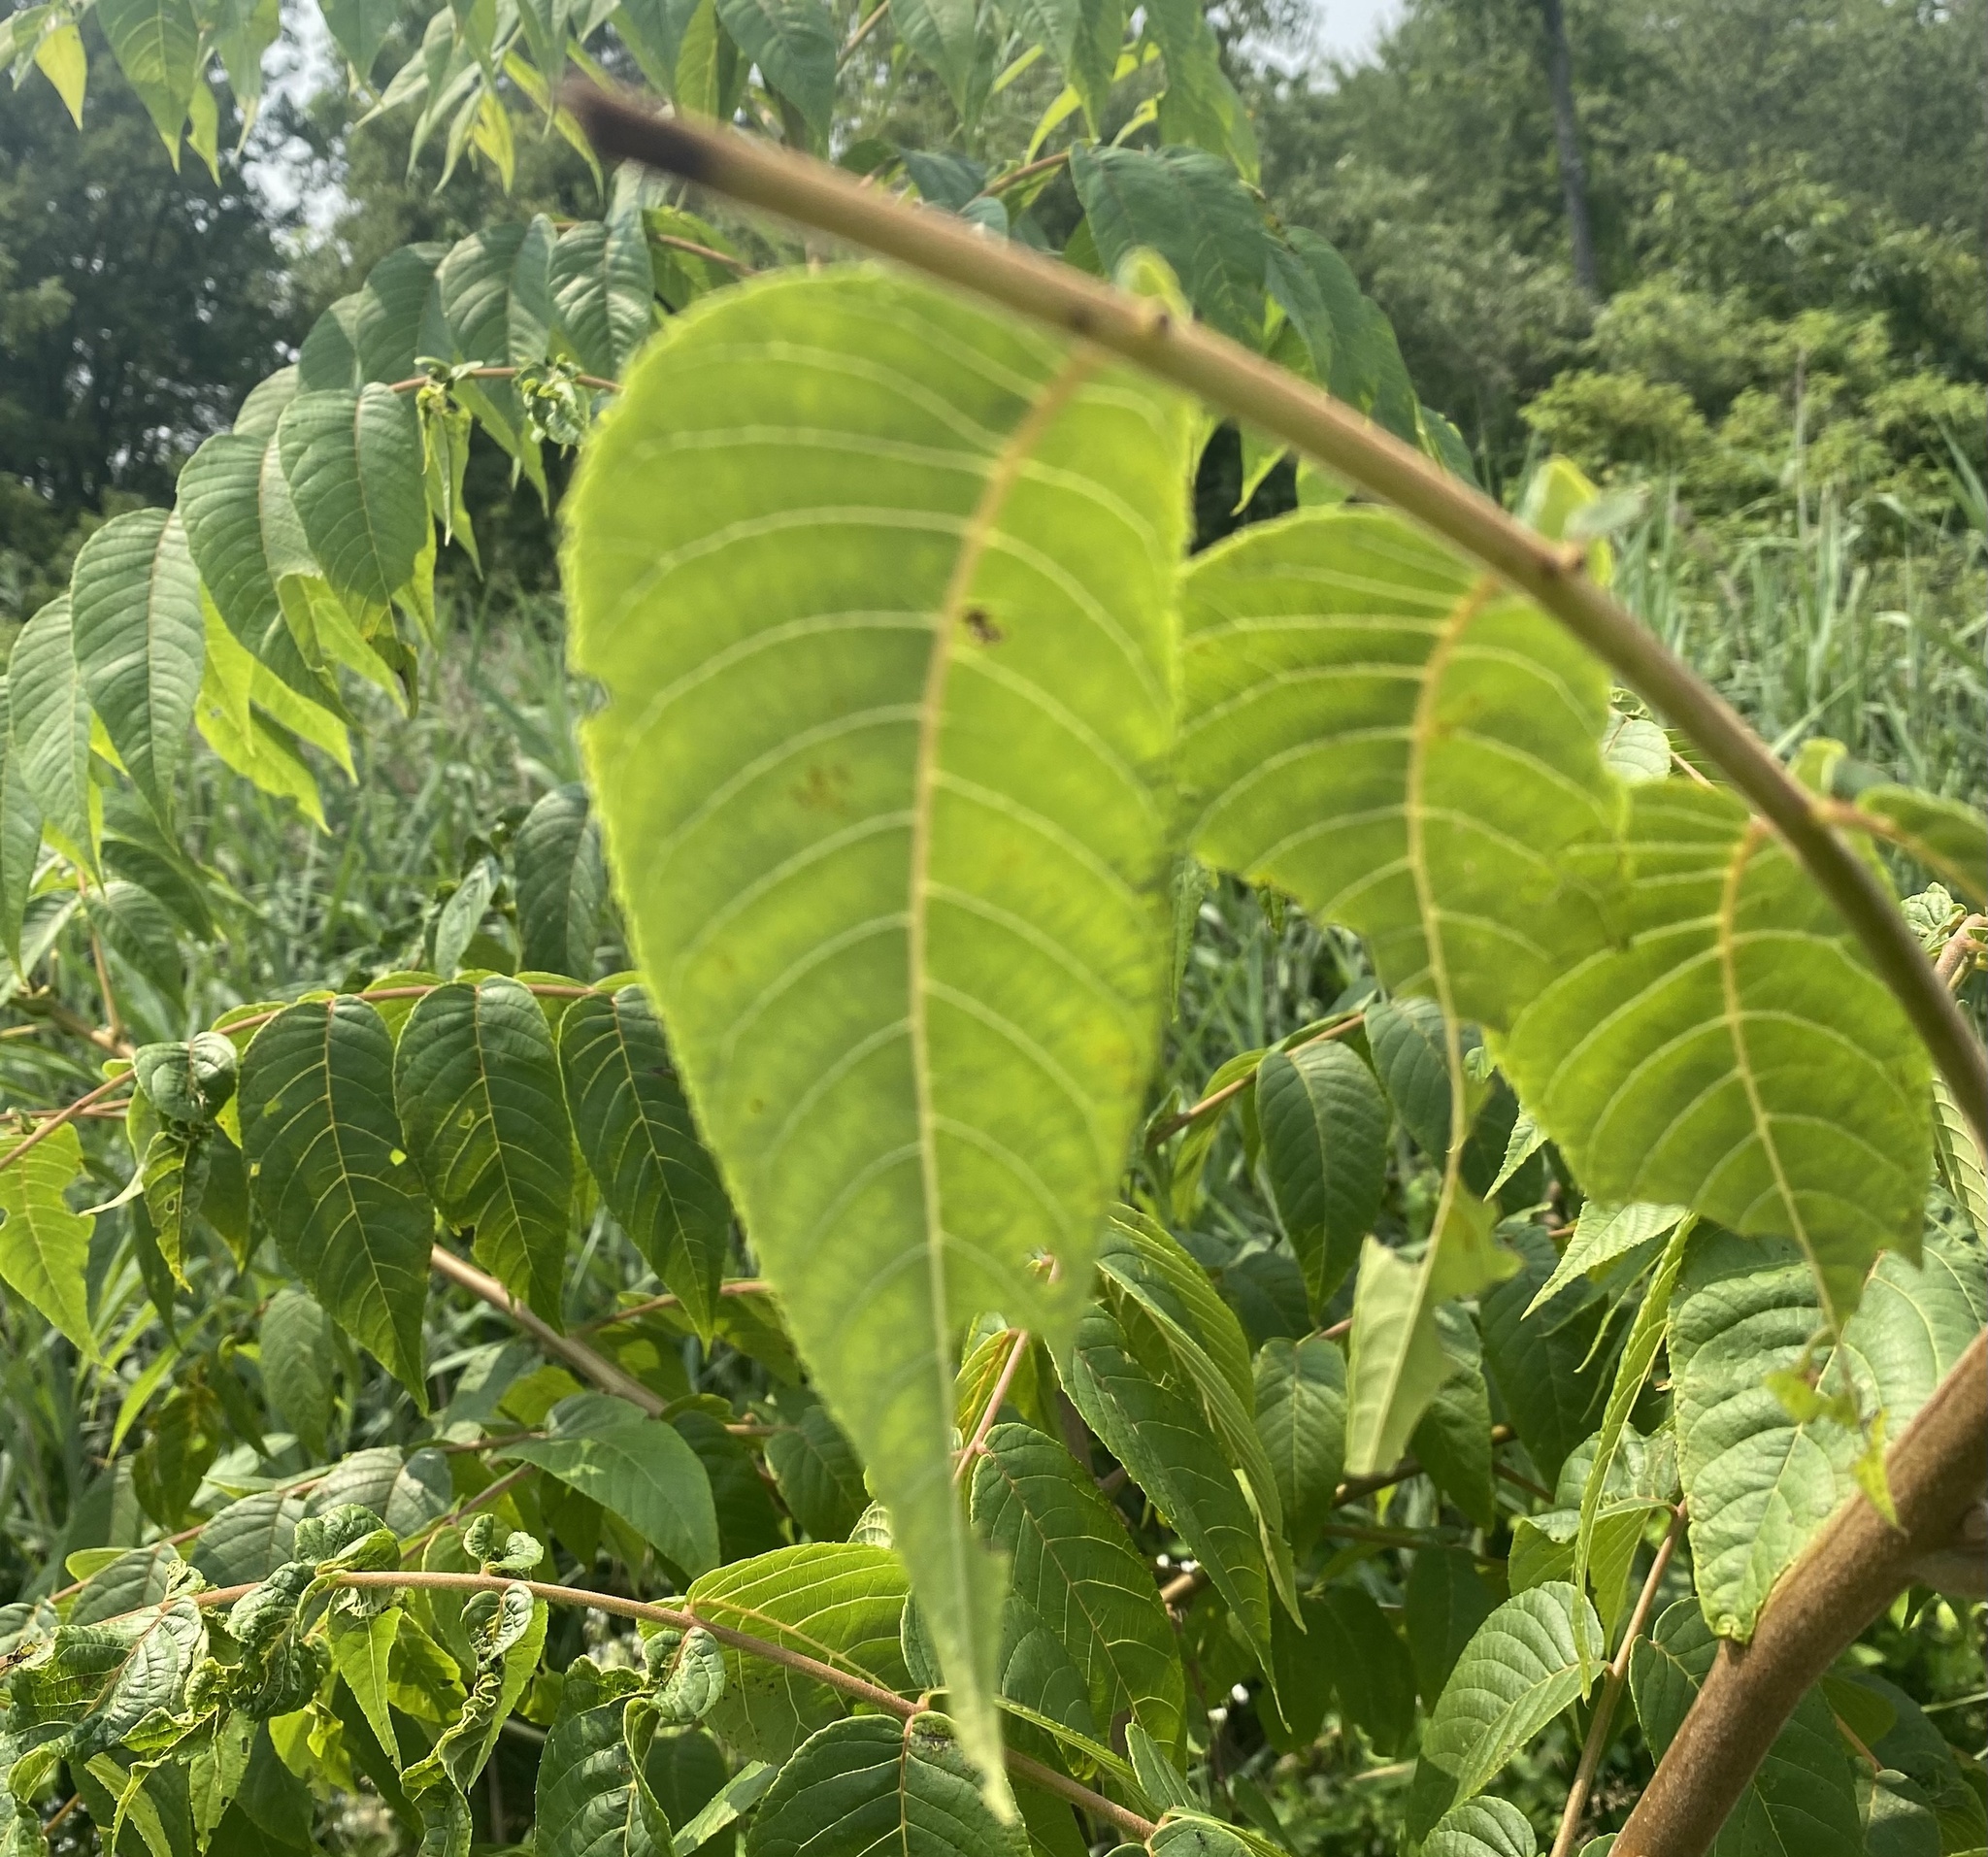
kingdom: Plantae
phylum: Tracheophyta
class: Magnoliopsida
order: Sapindales
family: Anacardiaceae
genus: Rhus
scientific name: Rhus glabra
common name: Scarlet sumac
